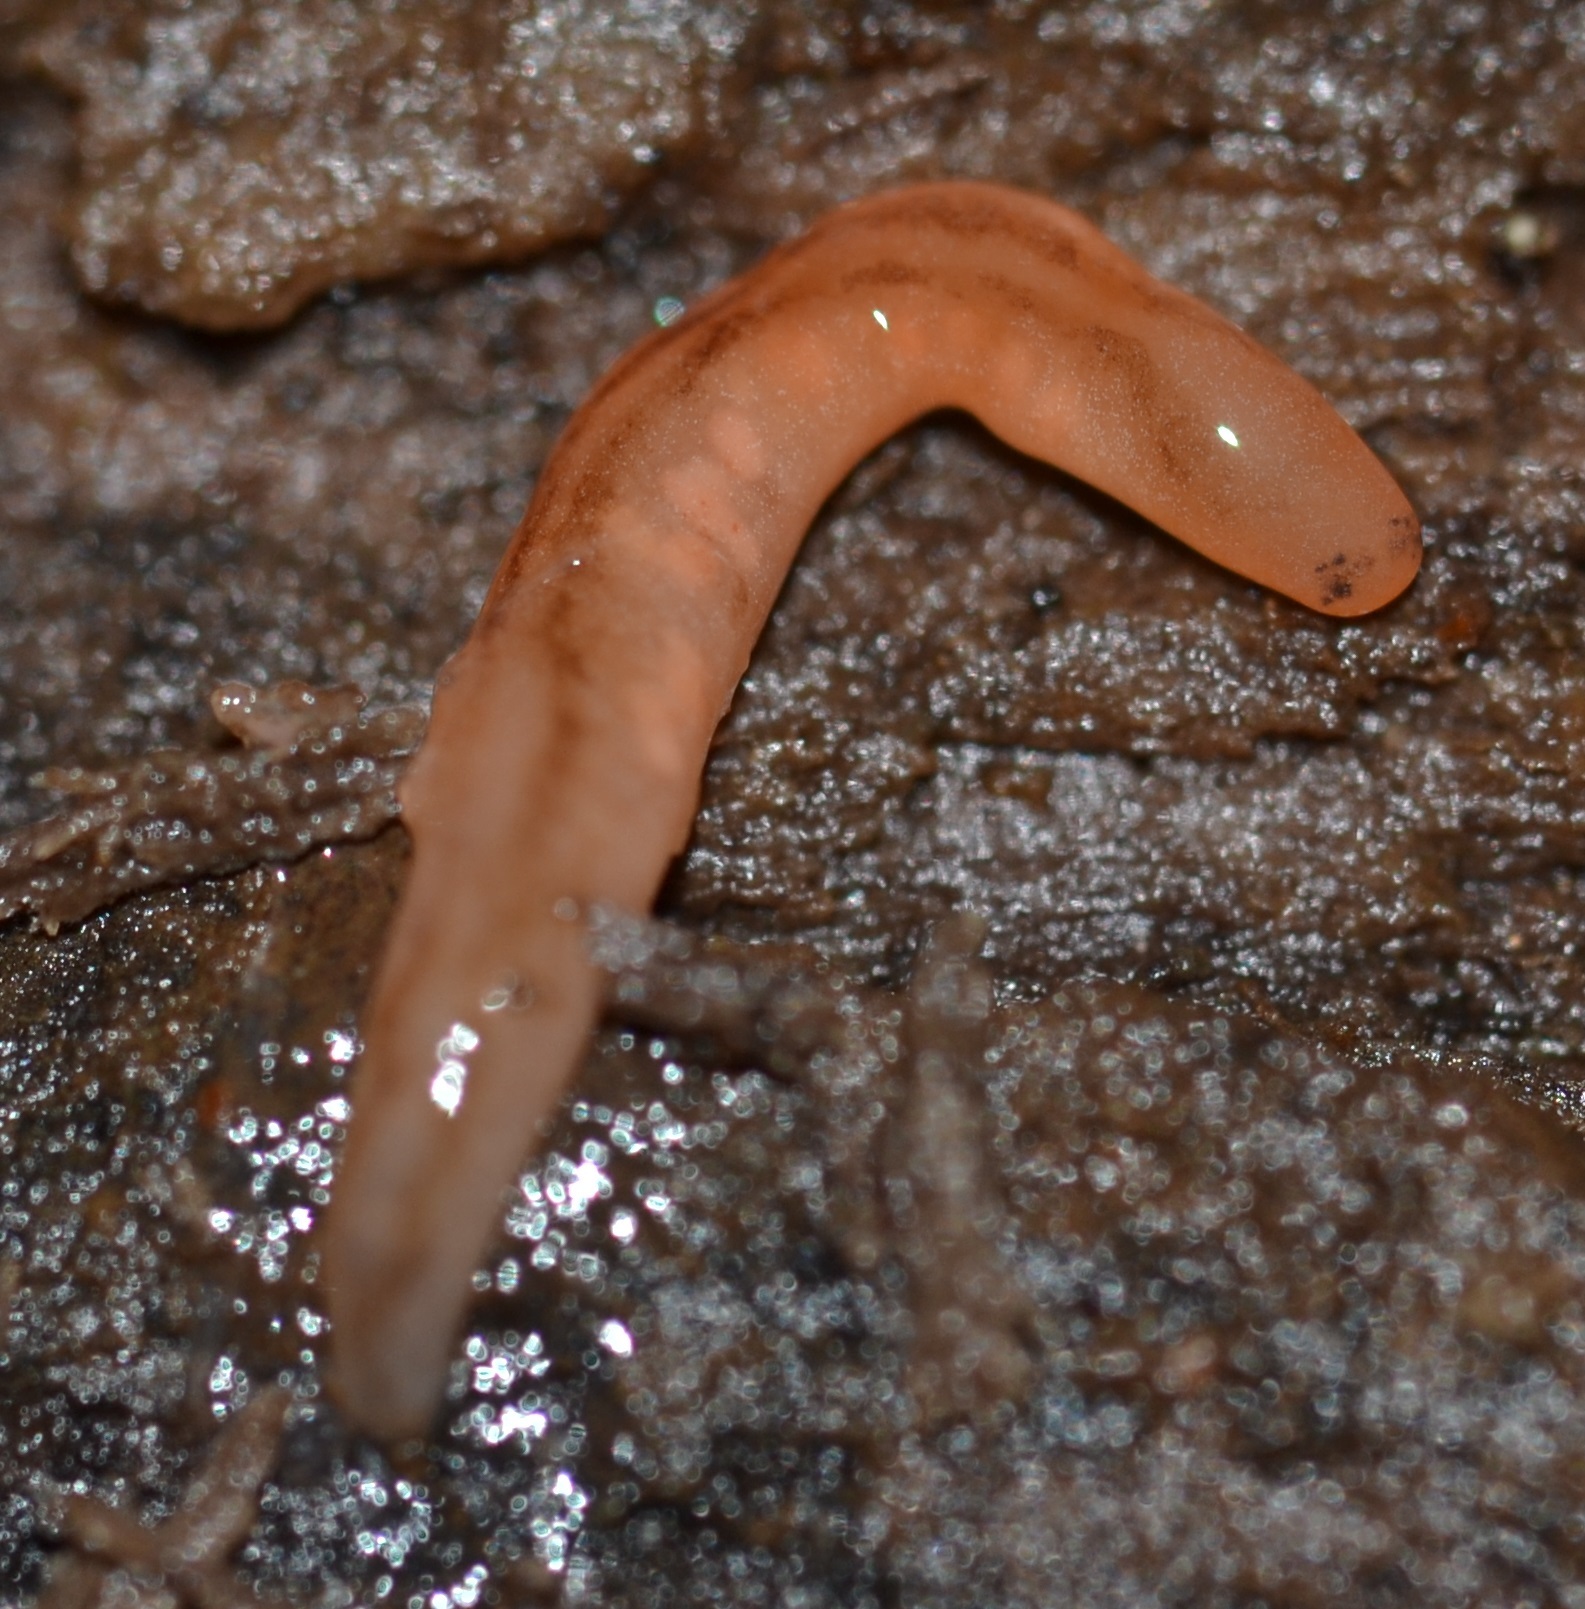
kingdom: Animalia
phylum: Nemertea
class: Hoplonemertea
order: Monostilifera
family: Acteonemertidae
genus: Argonemertes
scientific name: Argonemertes dendyi
